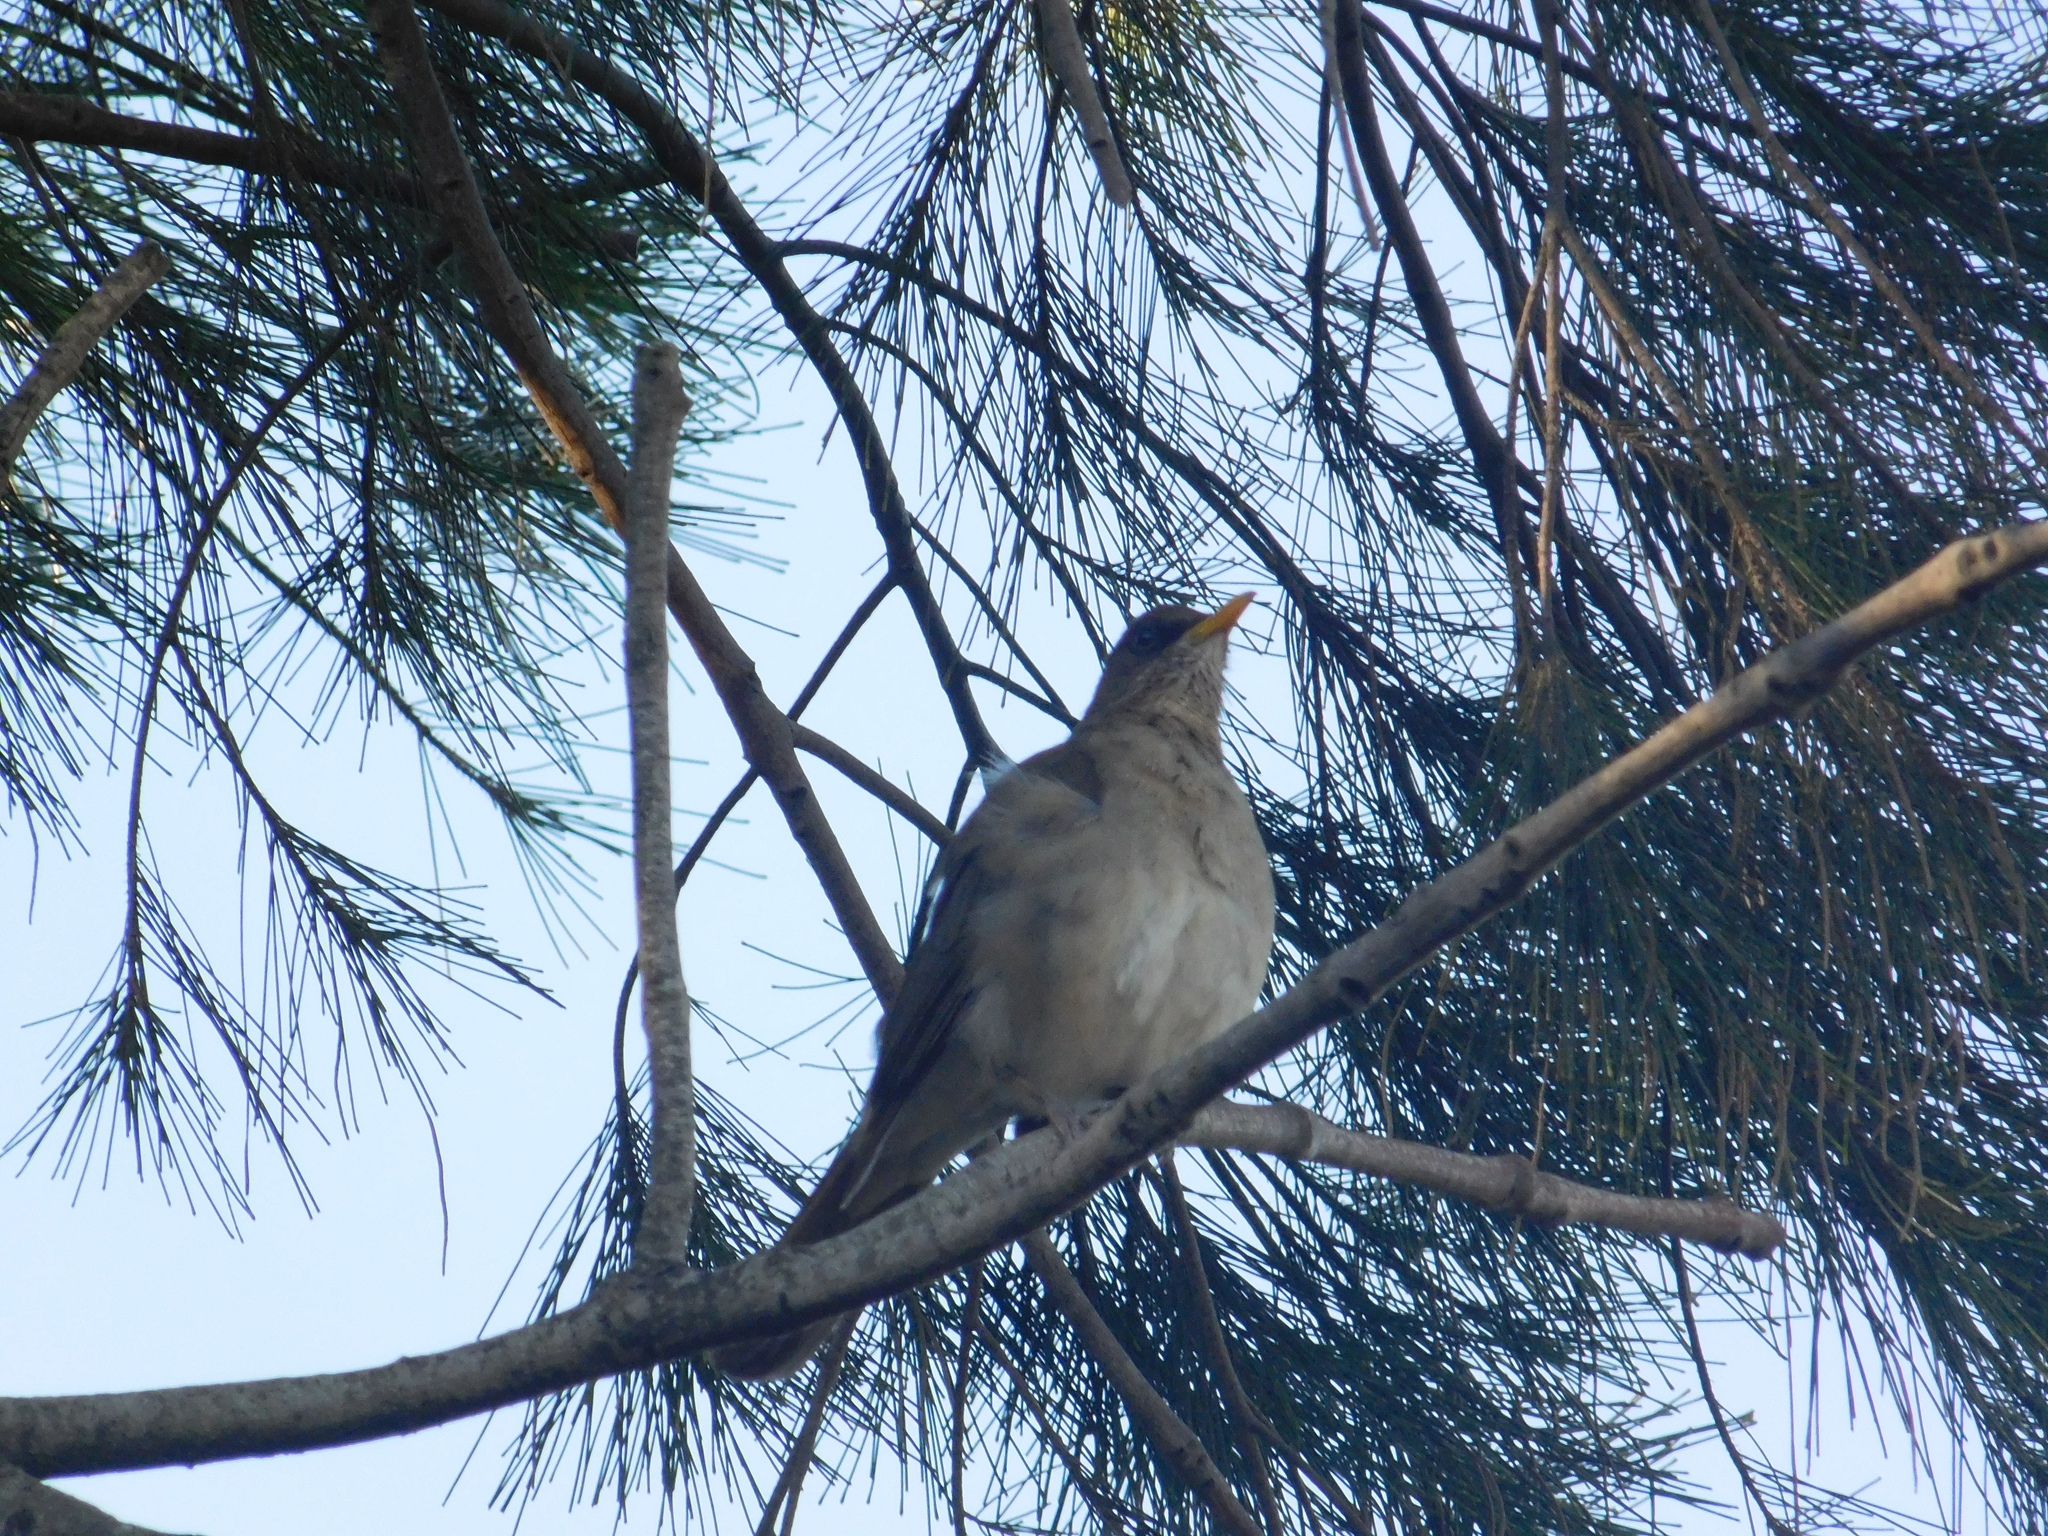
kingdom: Animalia
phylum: Chordata
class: Aves
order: Passeriformes
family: Turdidae
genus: Turdus
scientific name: Turdus amaurochalinus
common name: Creamy-bellied thrush
